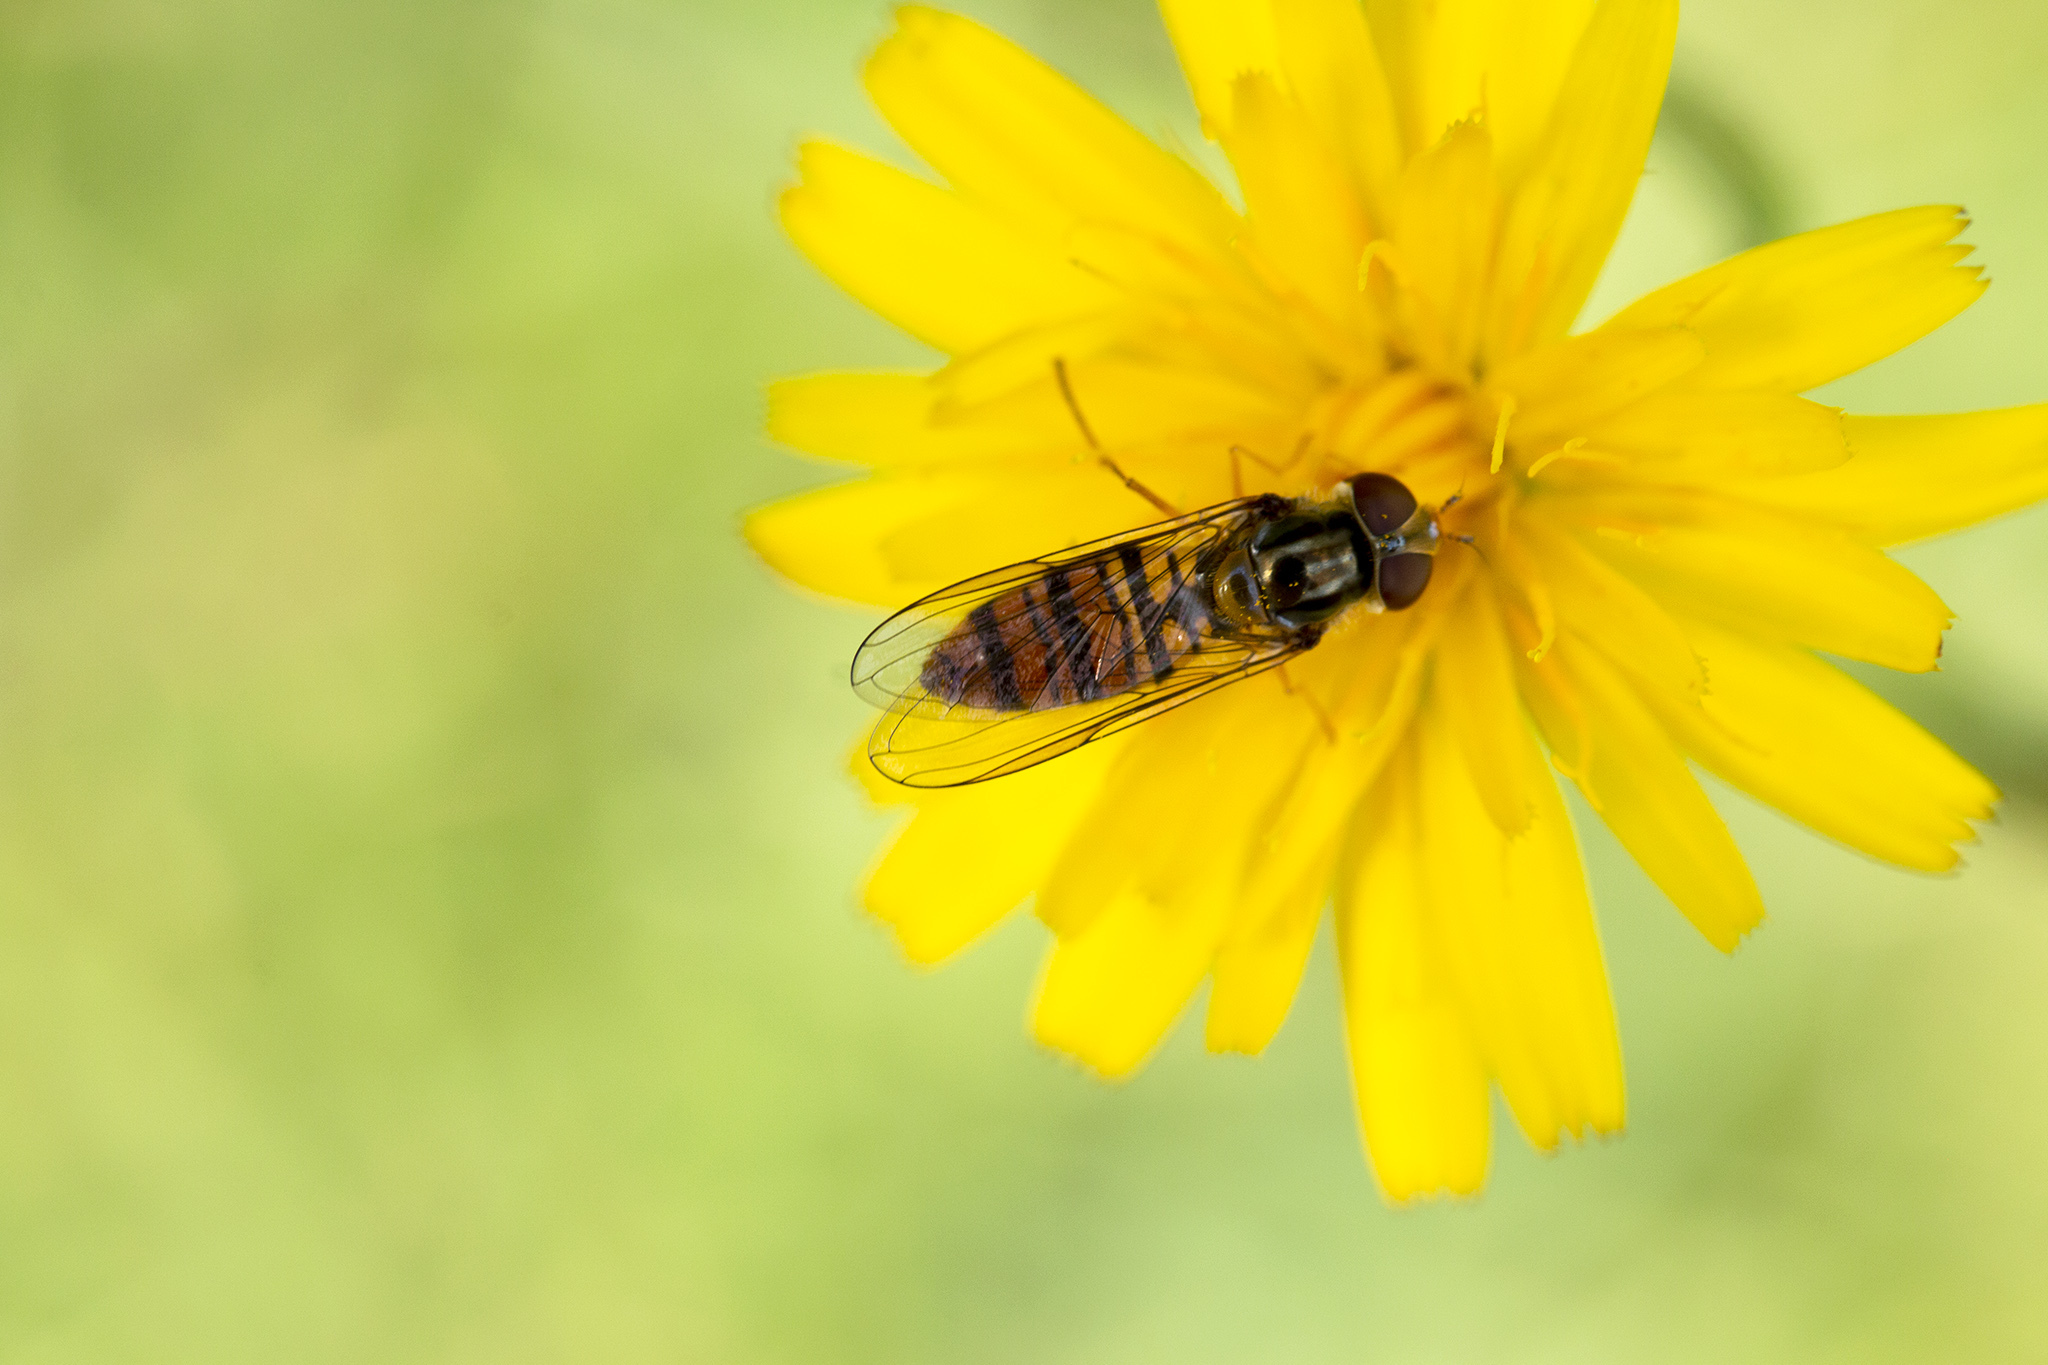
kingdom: Animalia
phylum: Arthropoda
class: Insecta
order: Diptera
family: Syrphidae
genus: Episyrphus
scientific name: Episyrphus balteatus
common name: Marmalade hoverfly
